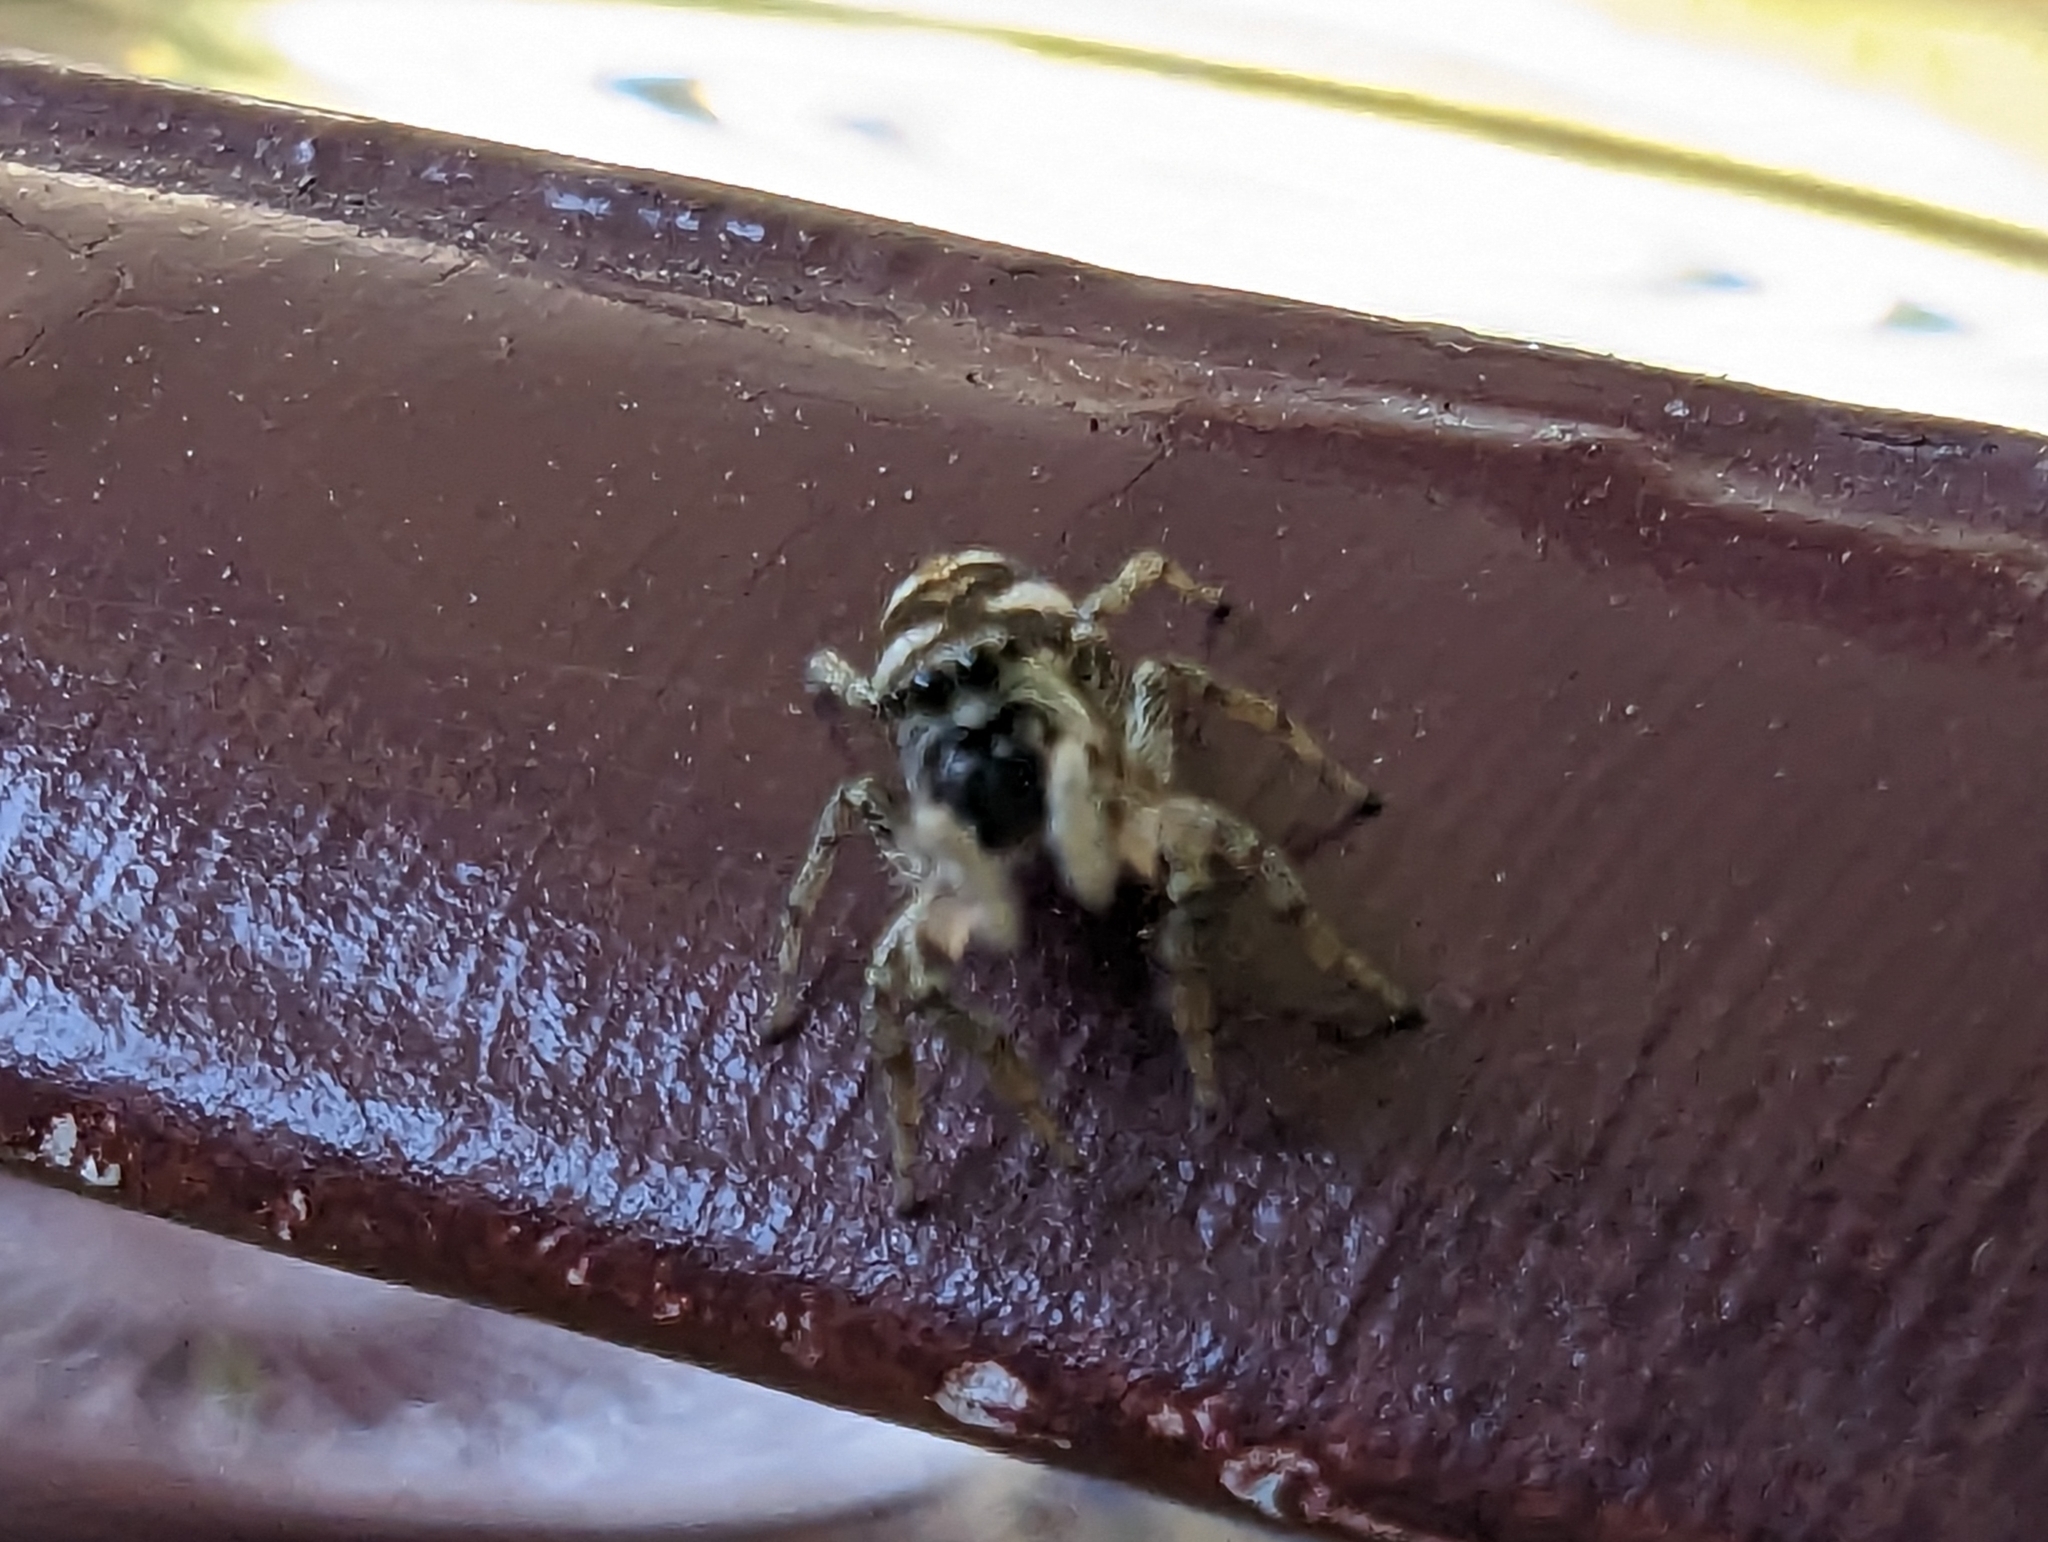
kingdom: Animalia
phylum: Arthropoda
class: Arachnida
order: Araneae
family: Salticidae
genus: Salticus
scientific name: Salticus scenicus
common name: Zebra jumper
